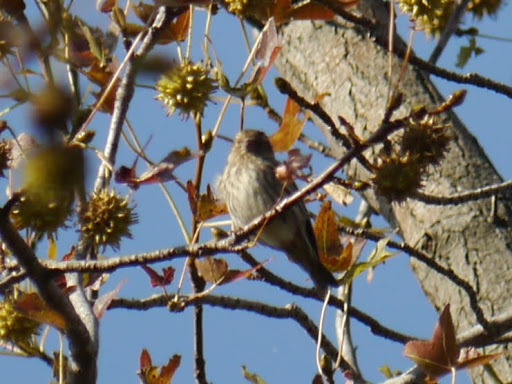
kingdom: Animalia
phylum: Chordata
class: Aves
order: Passeriformes
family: Fringillidae
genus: Spinus
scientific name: Spinus pinus
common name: Pine siskin
